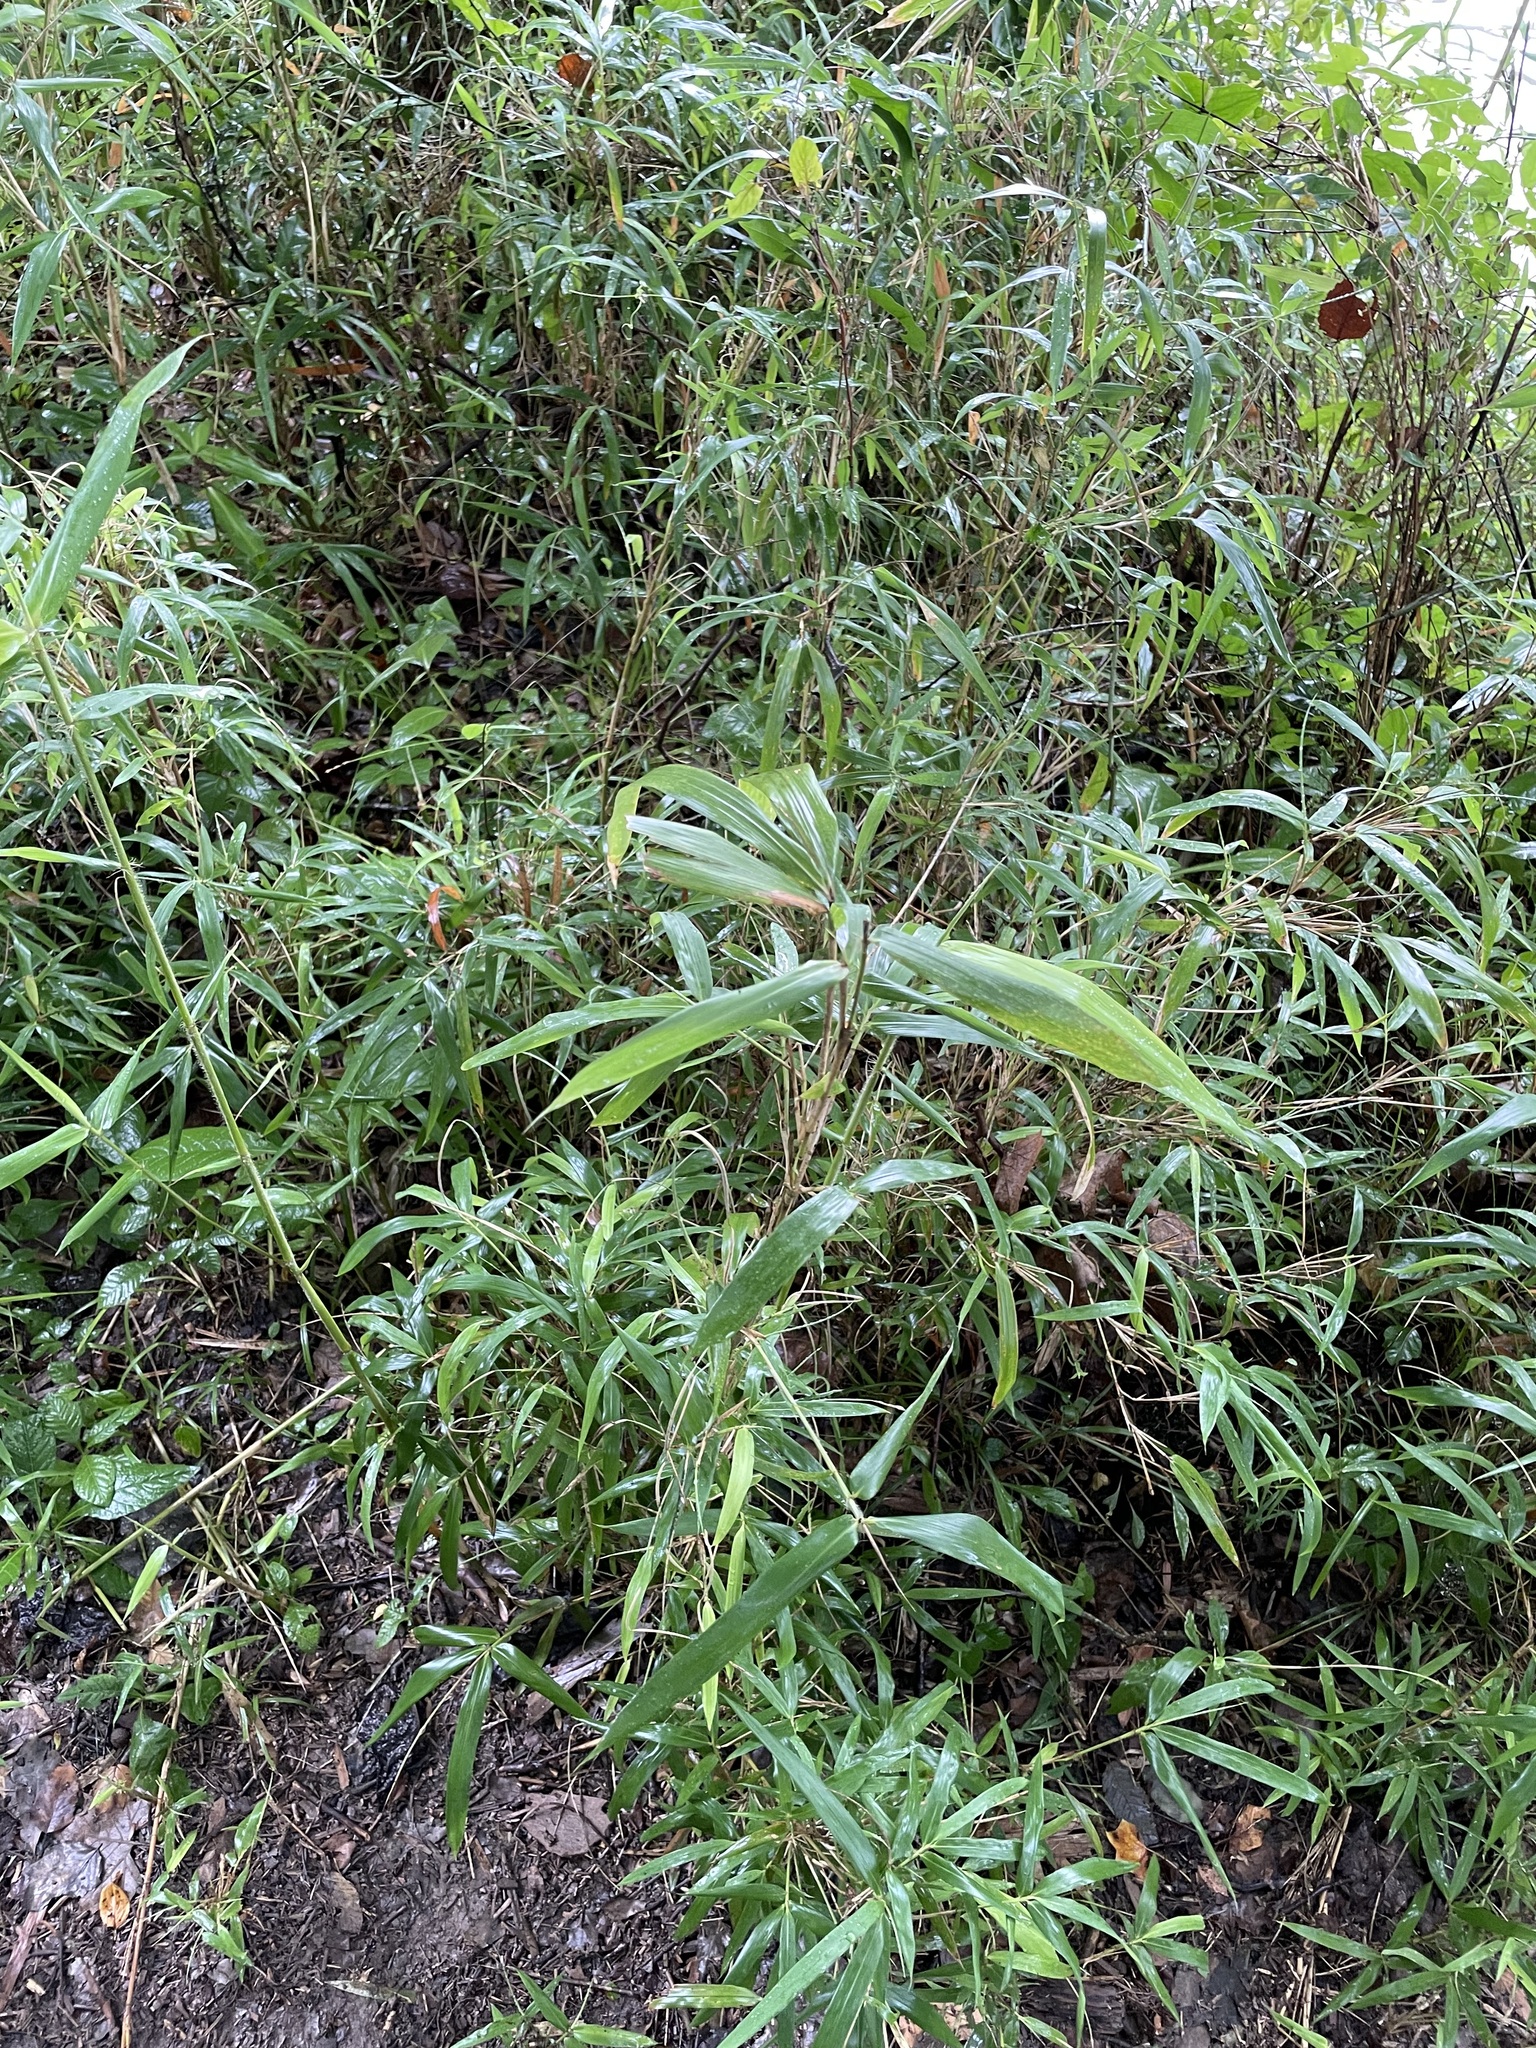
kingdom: Plantae
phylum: Tracheophyta
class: Liliopsida
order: Poales
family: Poaceae
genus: Arundinaria
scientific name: Arundinaria gigantea
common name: Giant cane
